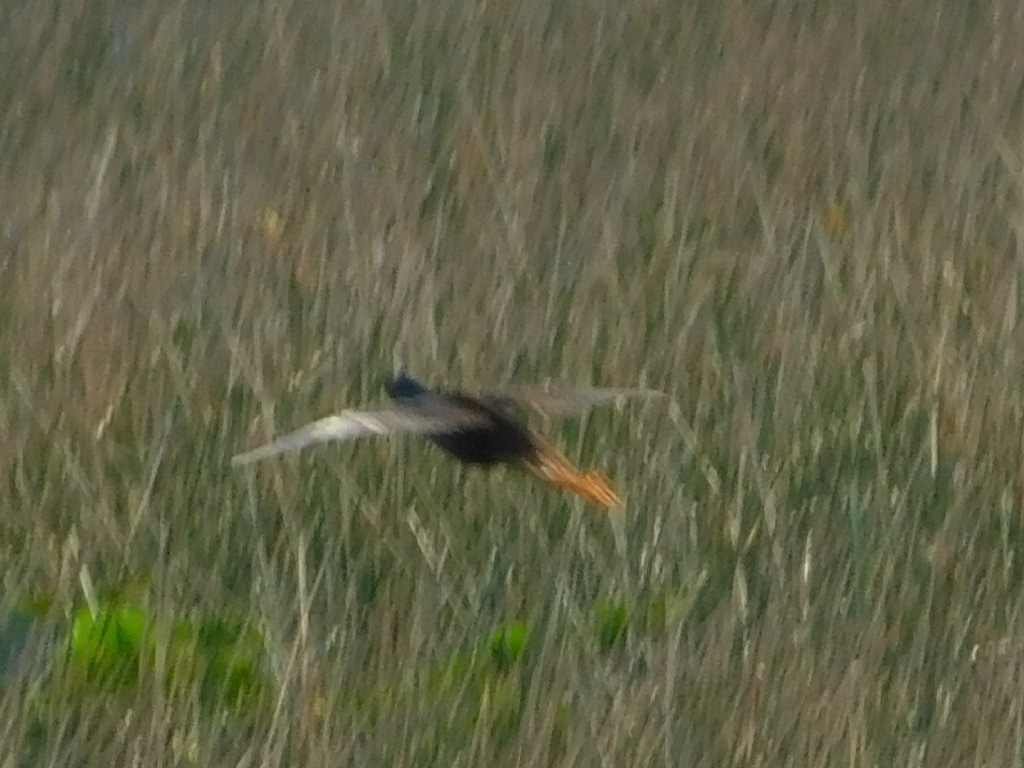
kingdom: Animalia
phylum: Chordata
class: Aves
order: Gruiformes
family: Rallidae
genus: Porphyrio
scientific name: Porphyrio martinica
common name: Purple gallinule
